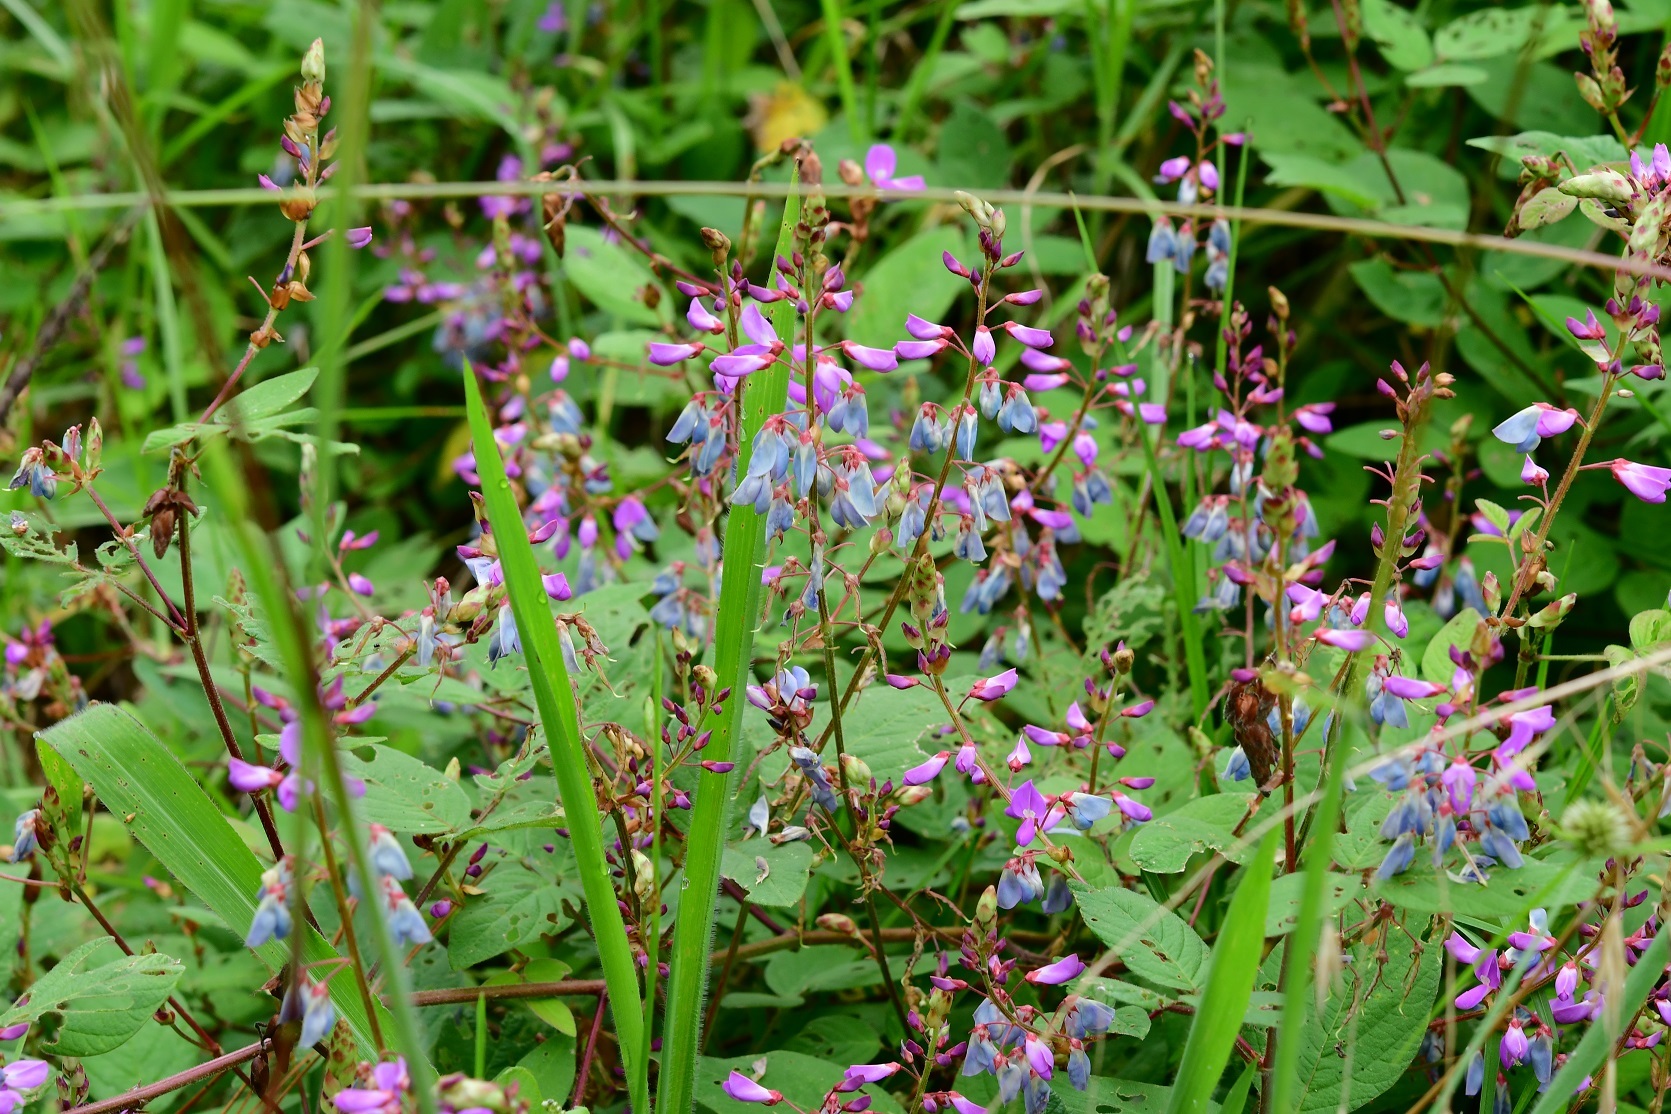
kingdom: Plantae
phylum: Tracheophyta
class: Magnoliopsida
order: Fabales
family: Fabaceae
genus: Desmodium
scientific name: Desmodium pringlei
